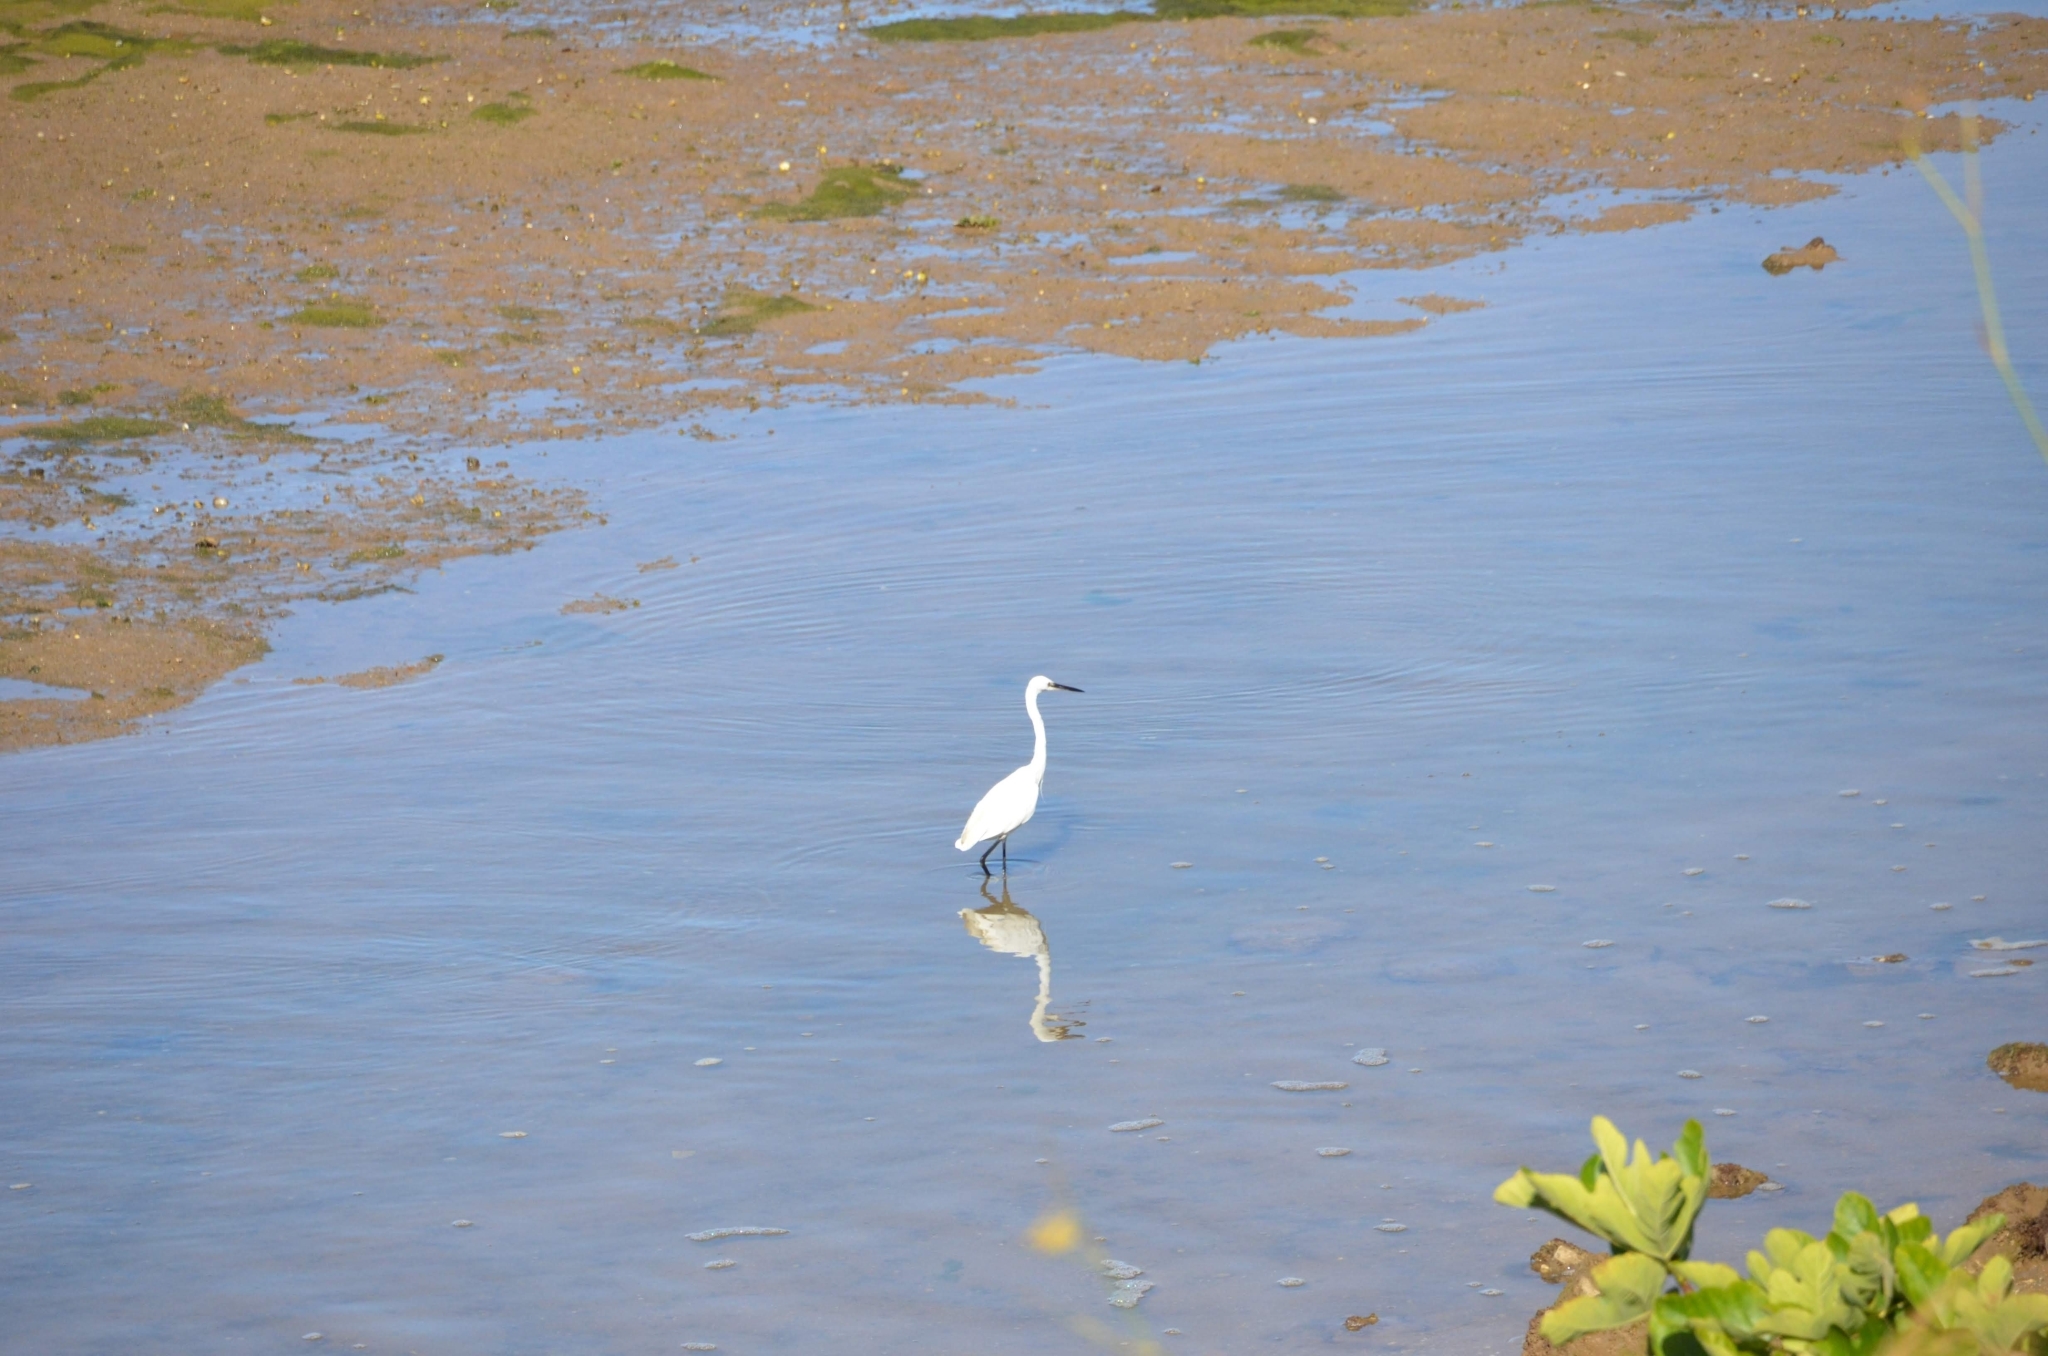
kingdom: Animalia
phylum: Chordata
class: Aves
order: Pelecaniformes
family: Ardeidae
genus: Egretta
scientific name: Egretta garzetta
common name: Little egret
